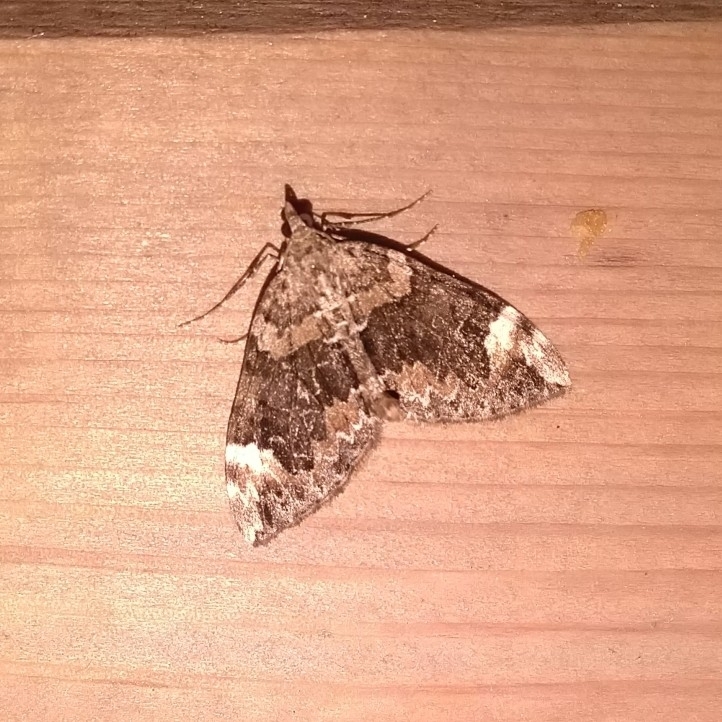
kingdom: Animalia
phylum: Arthropoda
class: Insecta
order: Lepidoptera
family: Geometridae
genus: Dysstroma
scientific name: Dysstroma citrata
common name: Dark marbled carpet
